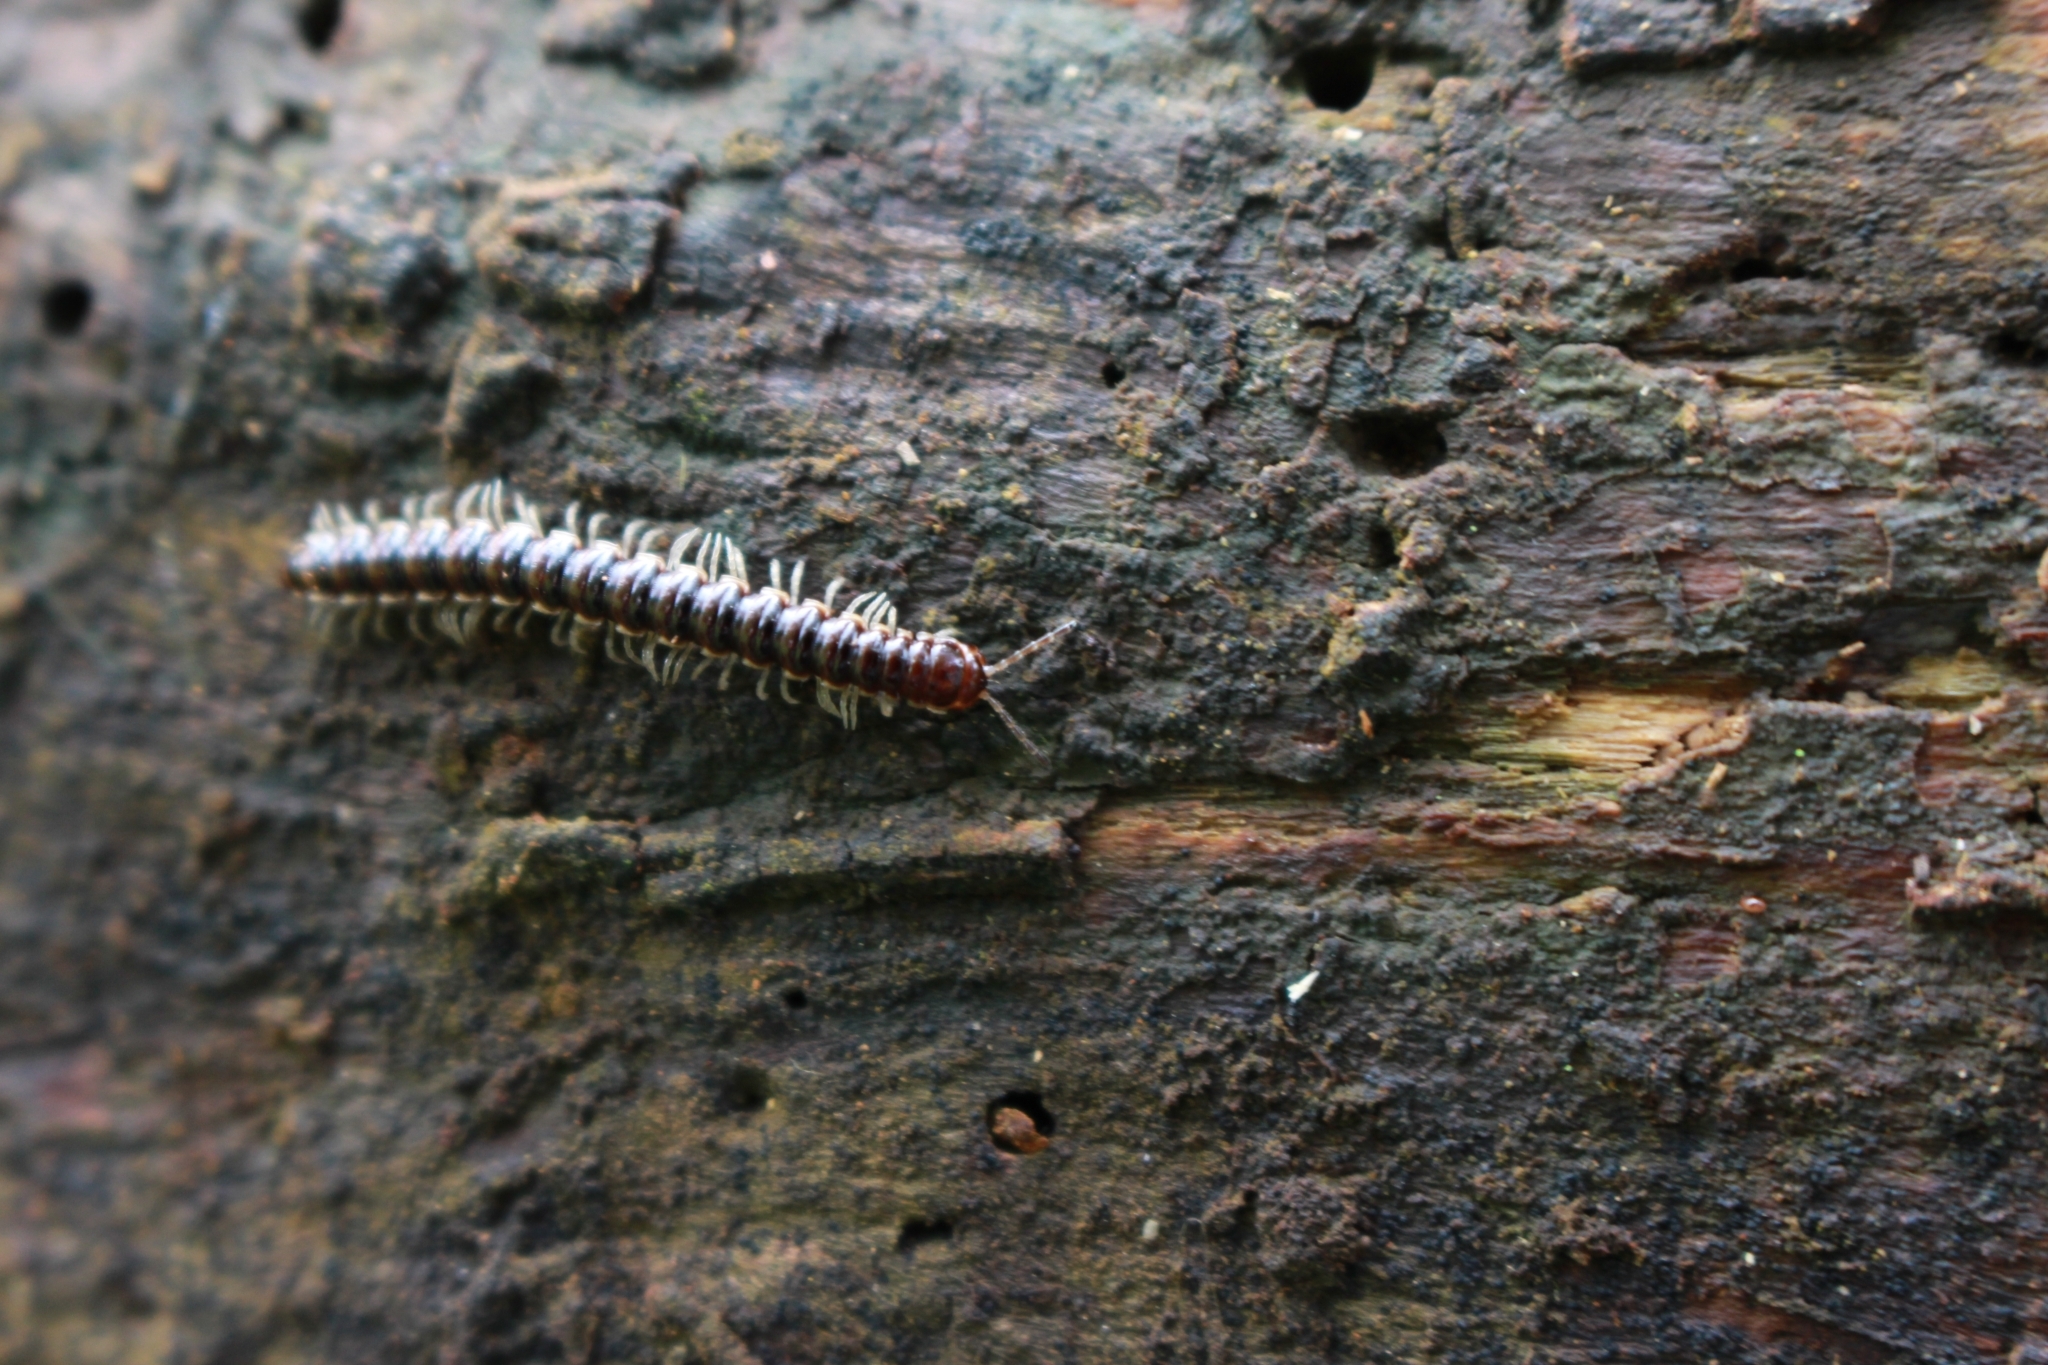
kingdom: Animalia
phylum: Arthropoda
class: Diplopoda
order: Polydesmida
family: Paradoxosomatidae
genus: Oxidus
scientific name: Oxidus gracilis
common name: Greenhouse millipede
